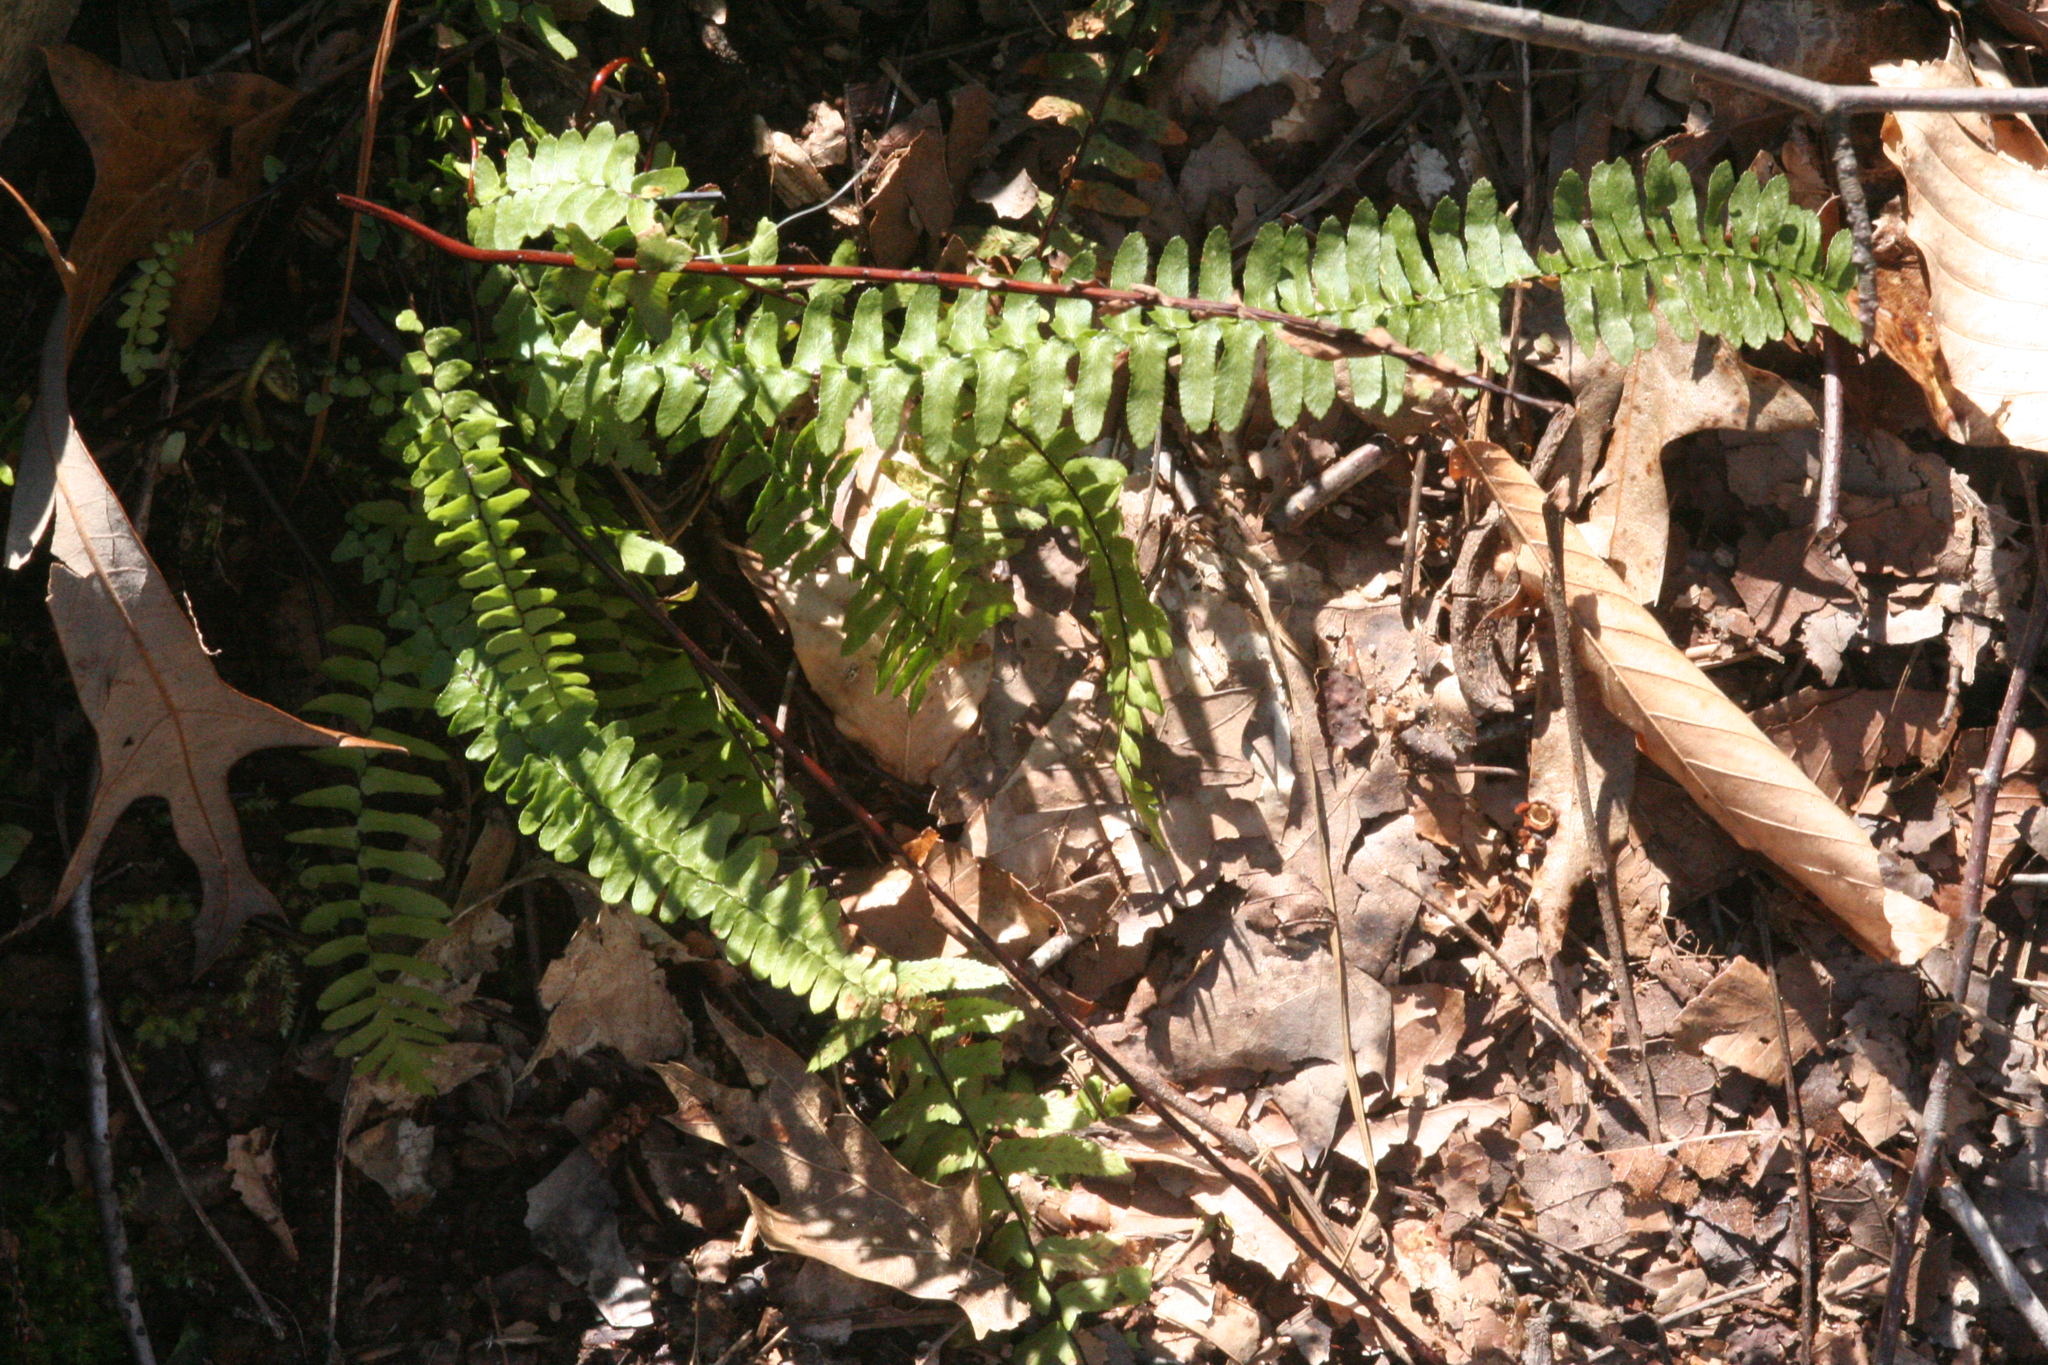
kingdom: Plantae
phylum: Tracheophyta
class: Polypodiopsida
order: Polypodiales
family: Aspleniaceae
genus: Asplenium
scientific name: Asplenium platyneuron
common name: Ebony spleenwort
